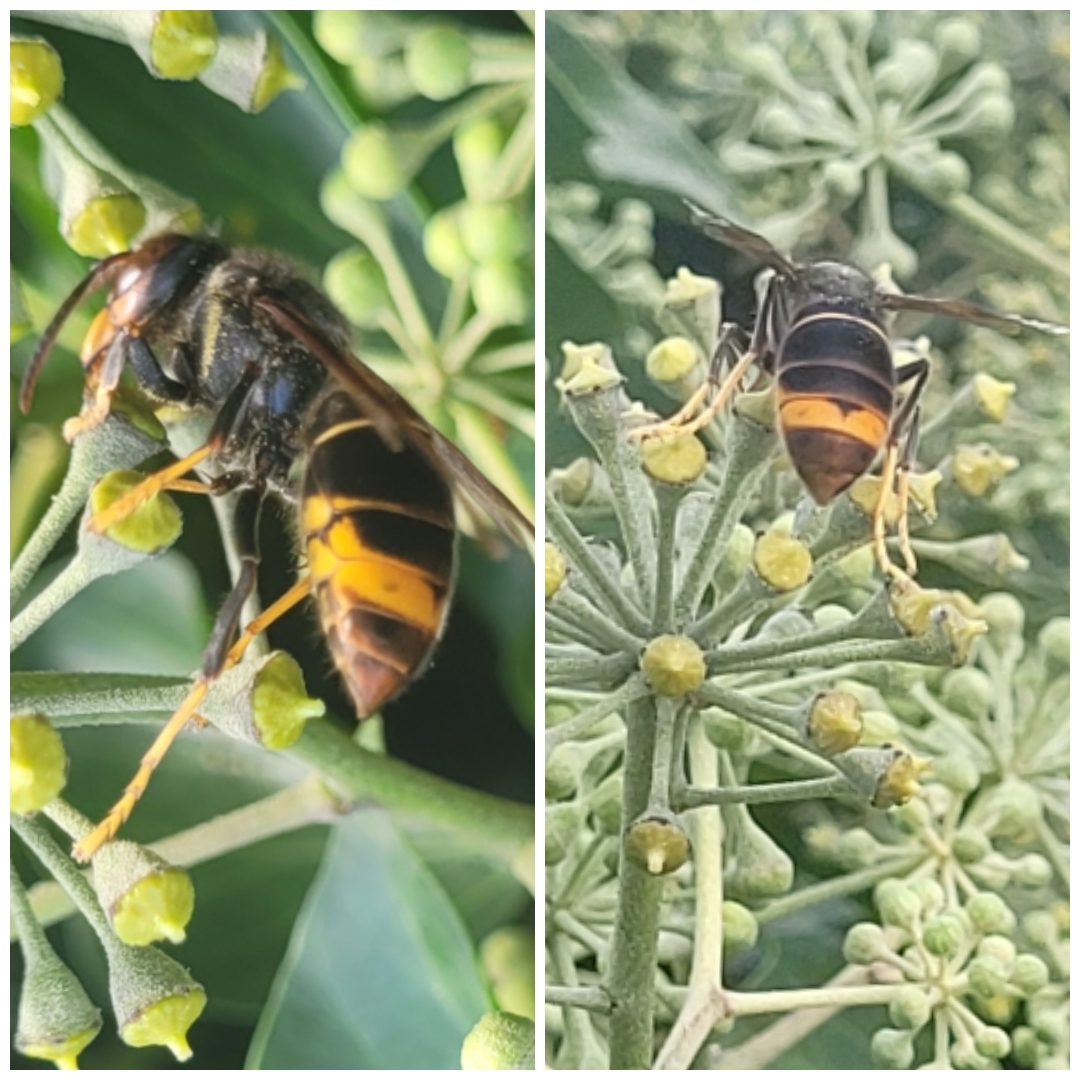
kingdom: Animalia
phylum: Arthropoda
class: Insecta
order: Hymenoptera
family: Vespidae
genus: Vespa
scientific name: Vespa velutina
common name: Asian hornet
